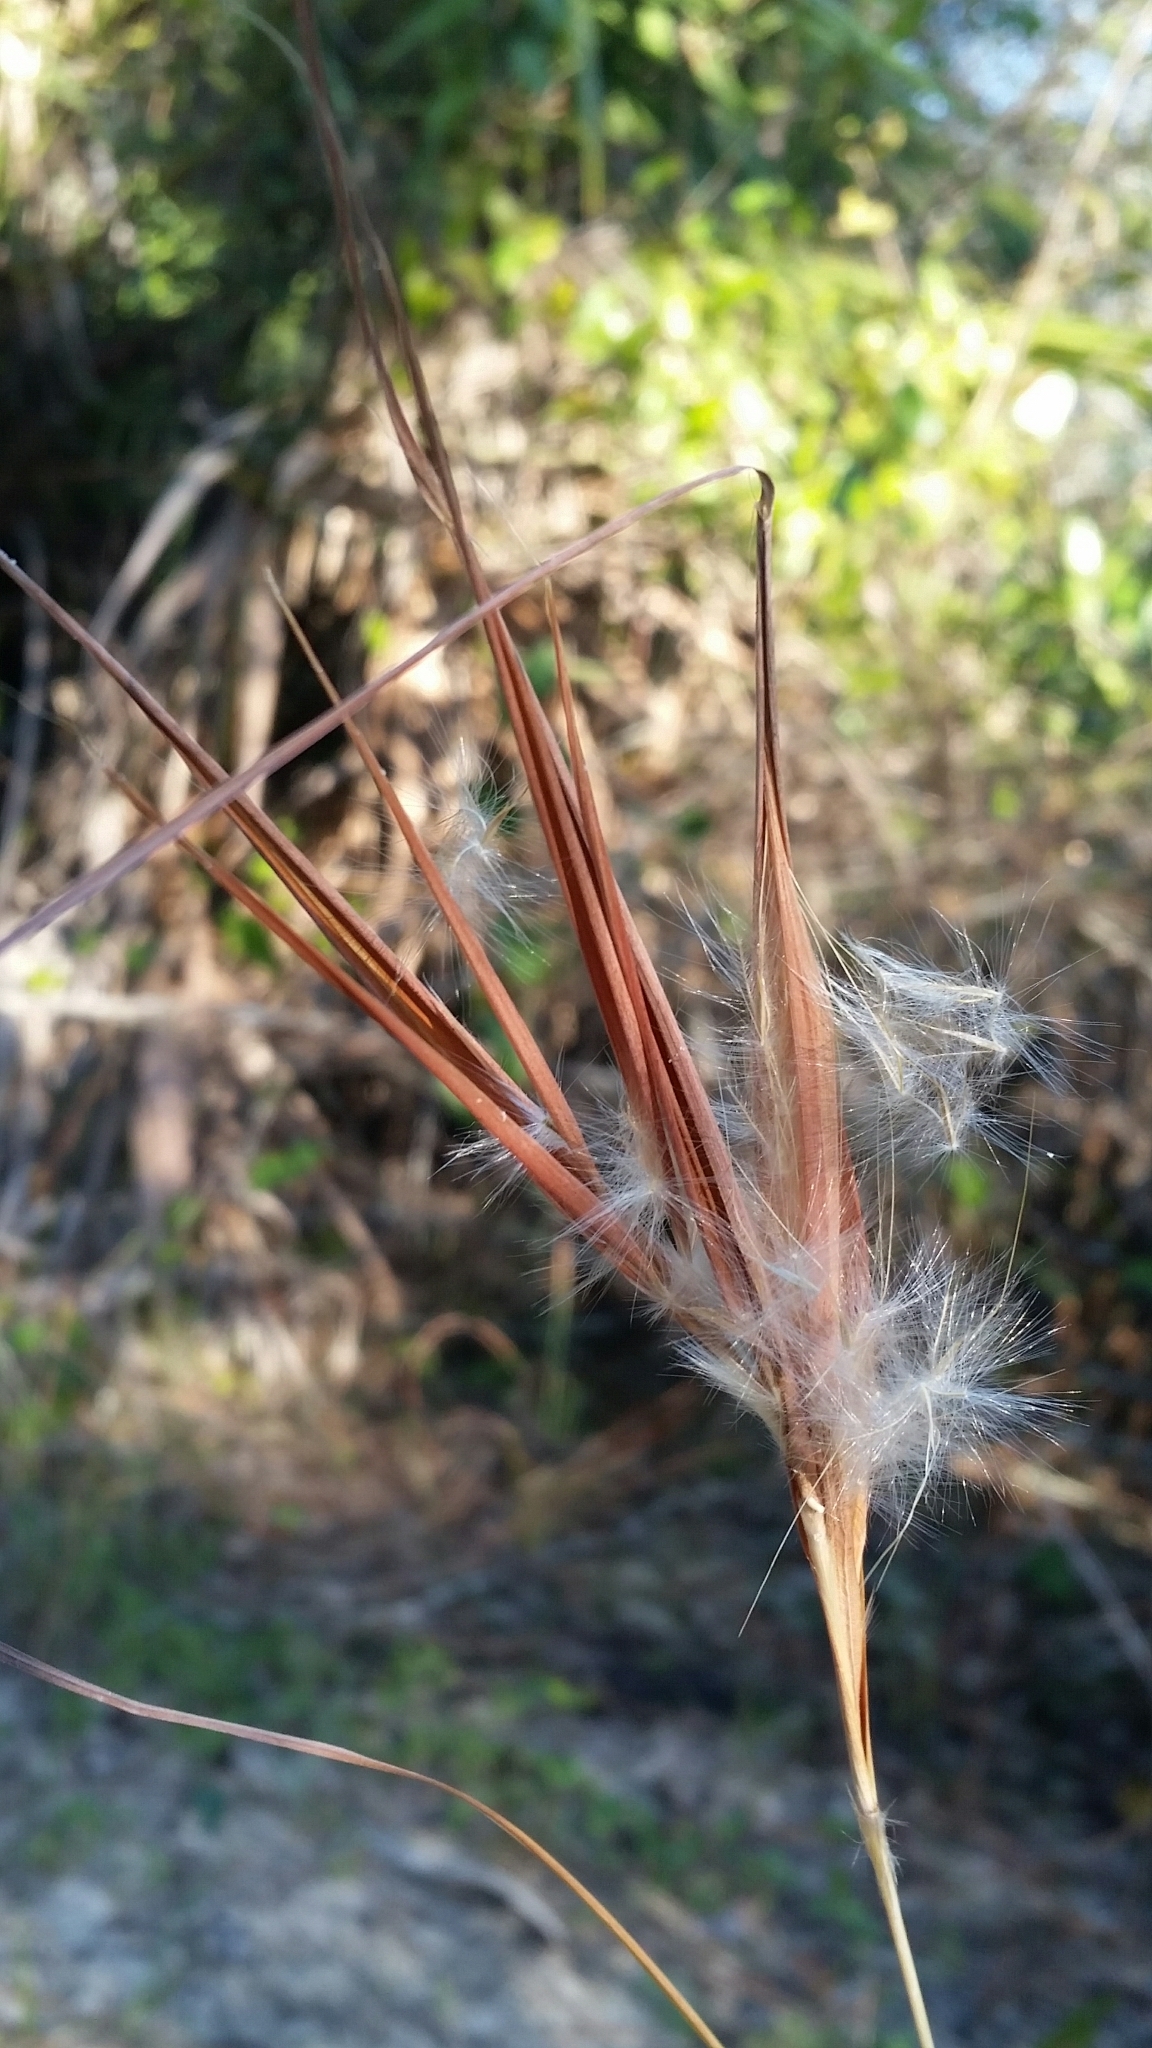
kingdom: Plantae
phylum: Tracheophyta
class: Liliopsida
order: Poales
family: Poaceae
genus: Andropogon
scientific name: Andropogon gyrans
